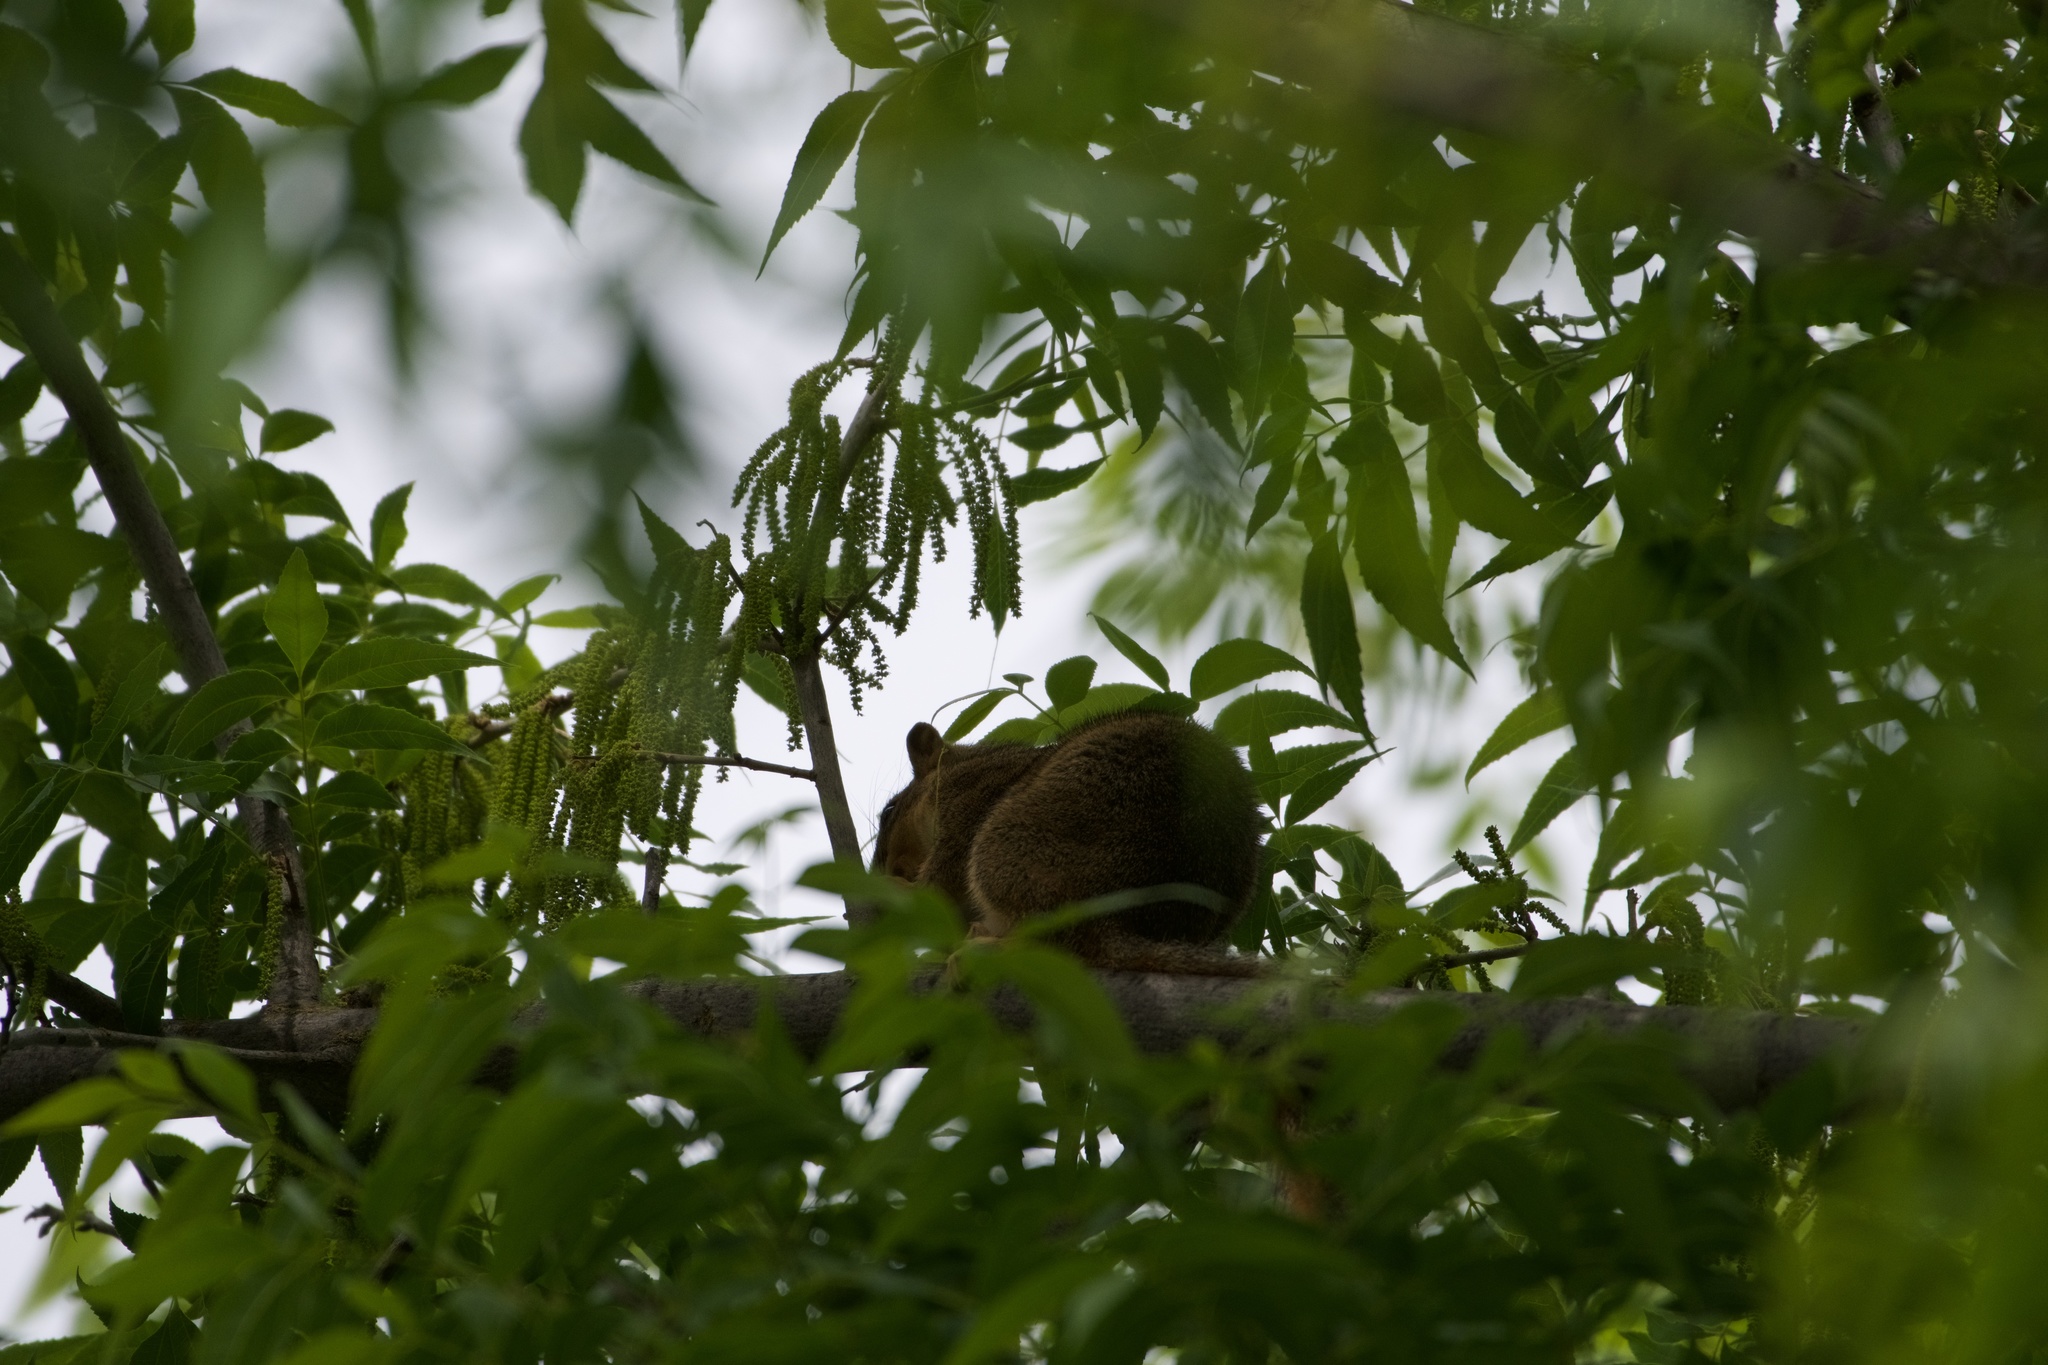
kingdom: Animalia
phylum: Chordata
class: Mammalia
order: Rodentia
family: Sciuridae
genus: Sciurus
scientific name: Sciurus niger
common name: Fox squirrel
